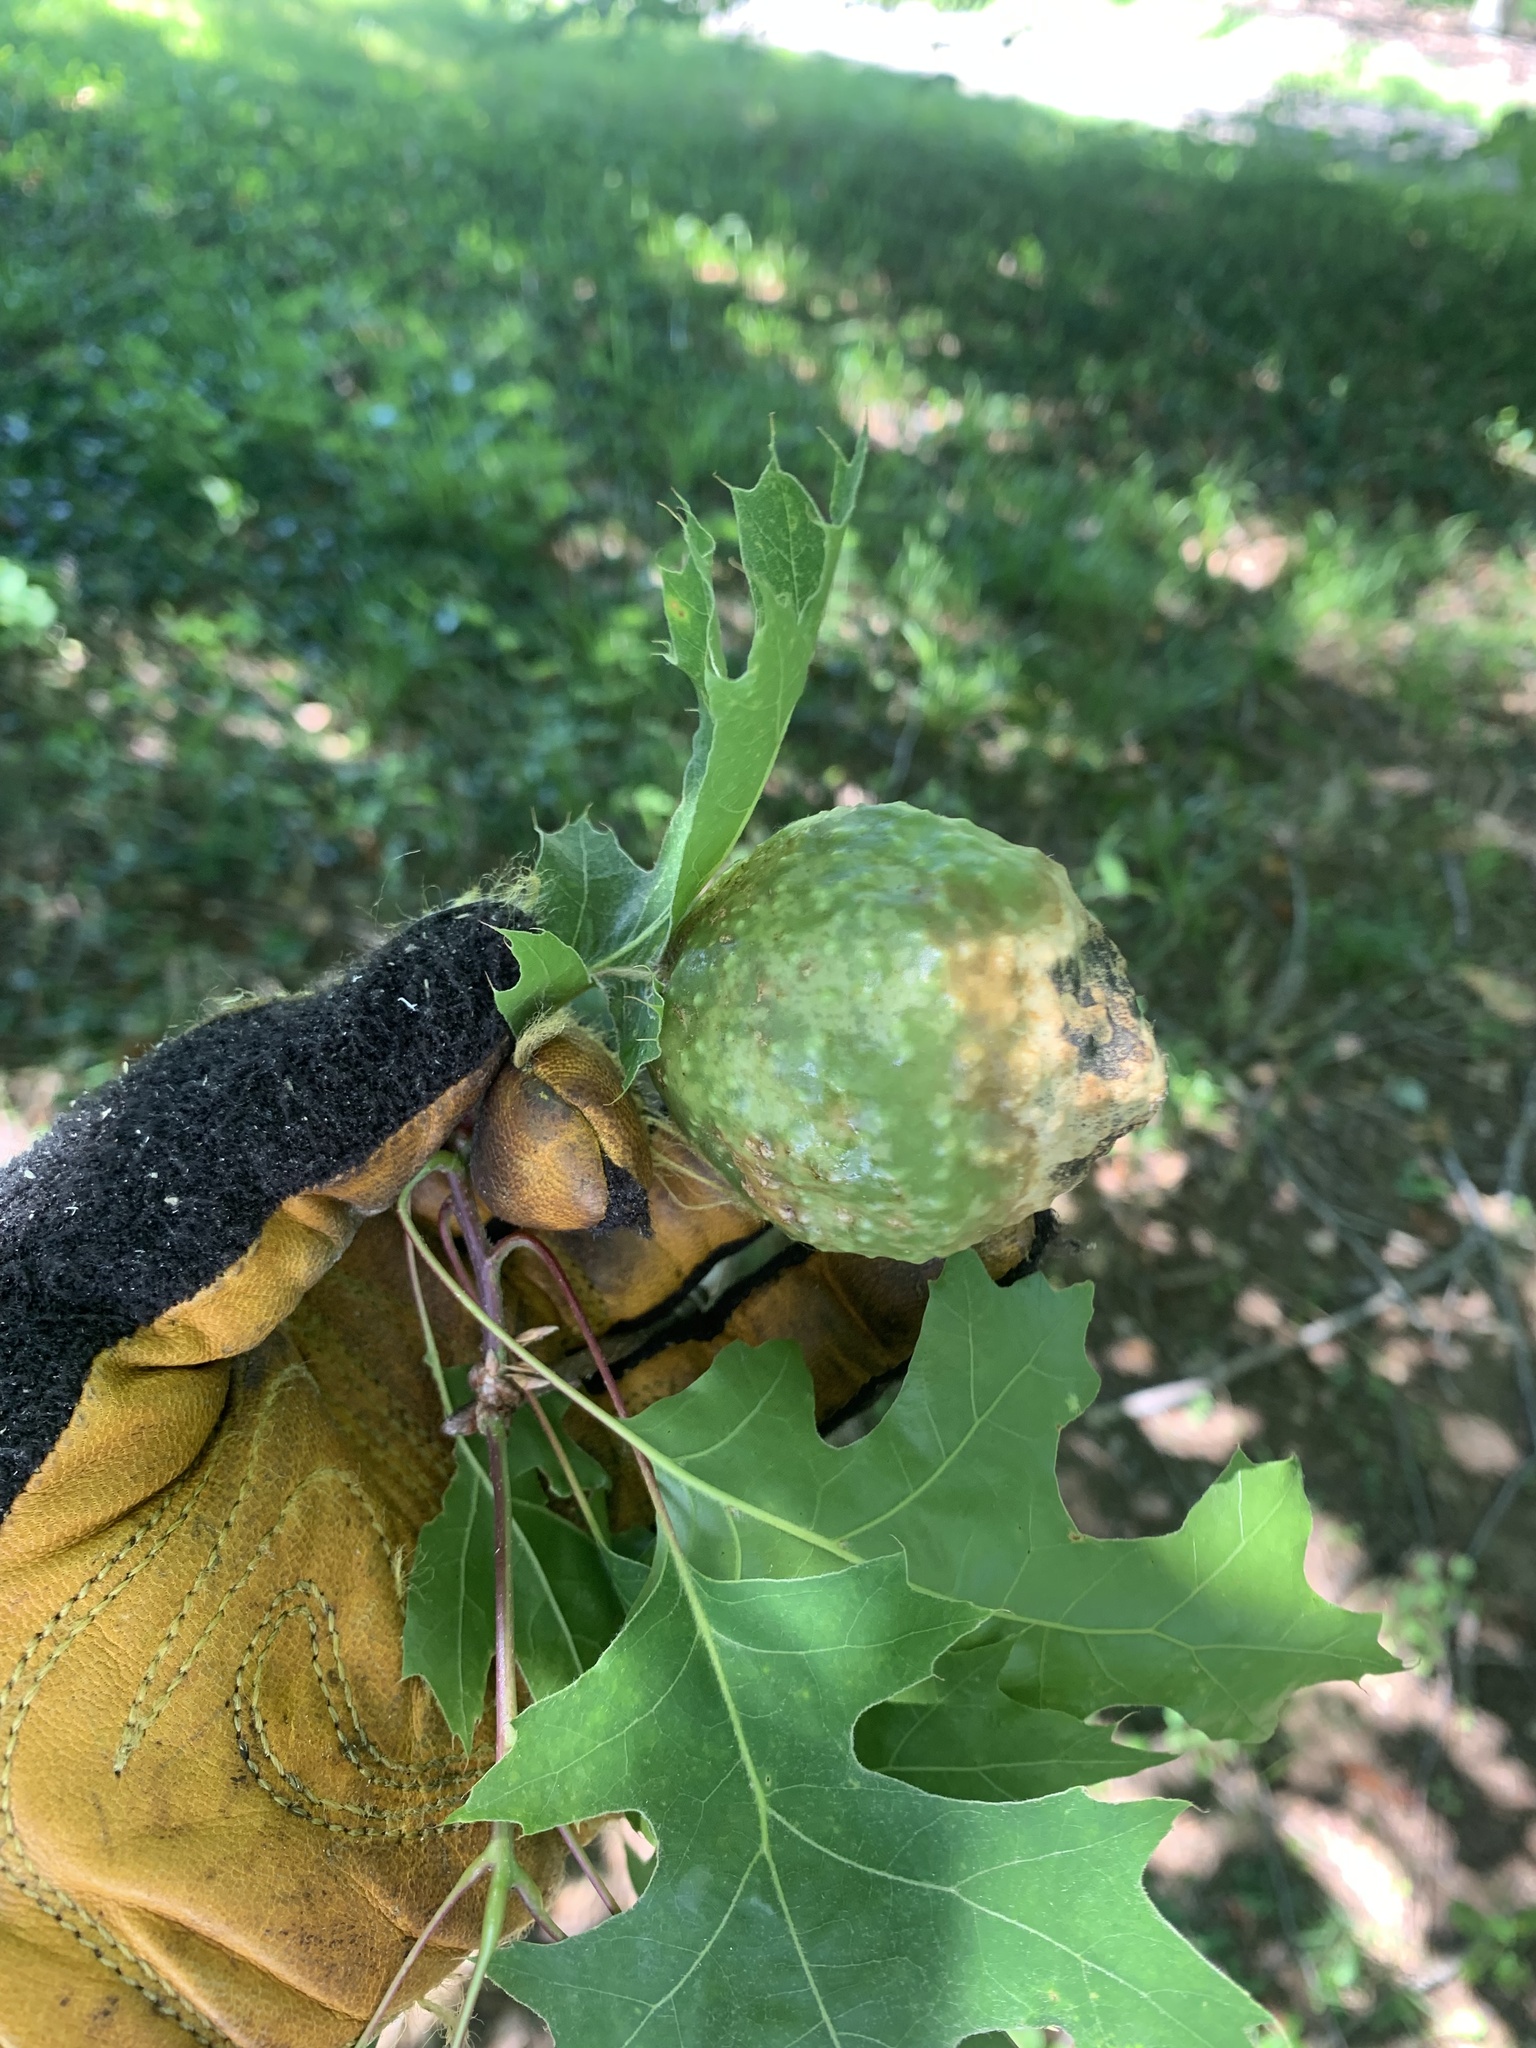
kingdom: Animalia
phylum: Arthropoda
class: Insecta
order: Hymenoptera
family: Cynipidae
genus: Amphibolips
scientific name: Amphibolips
